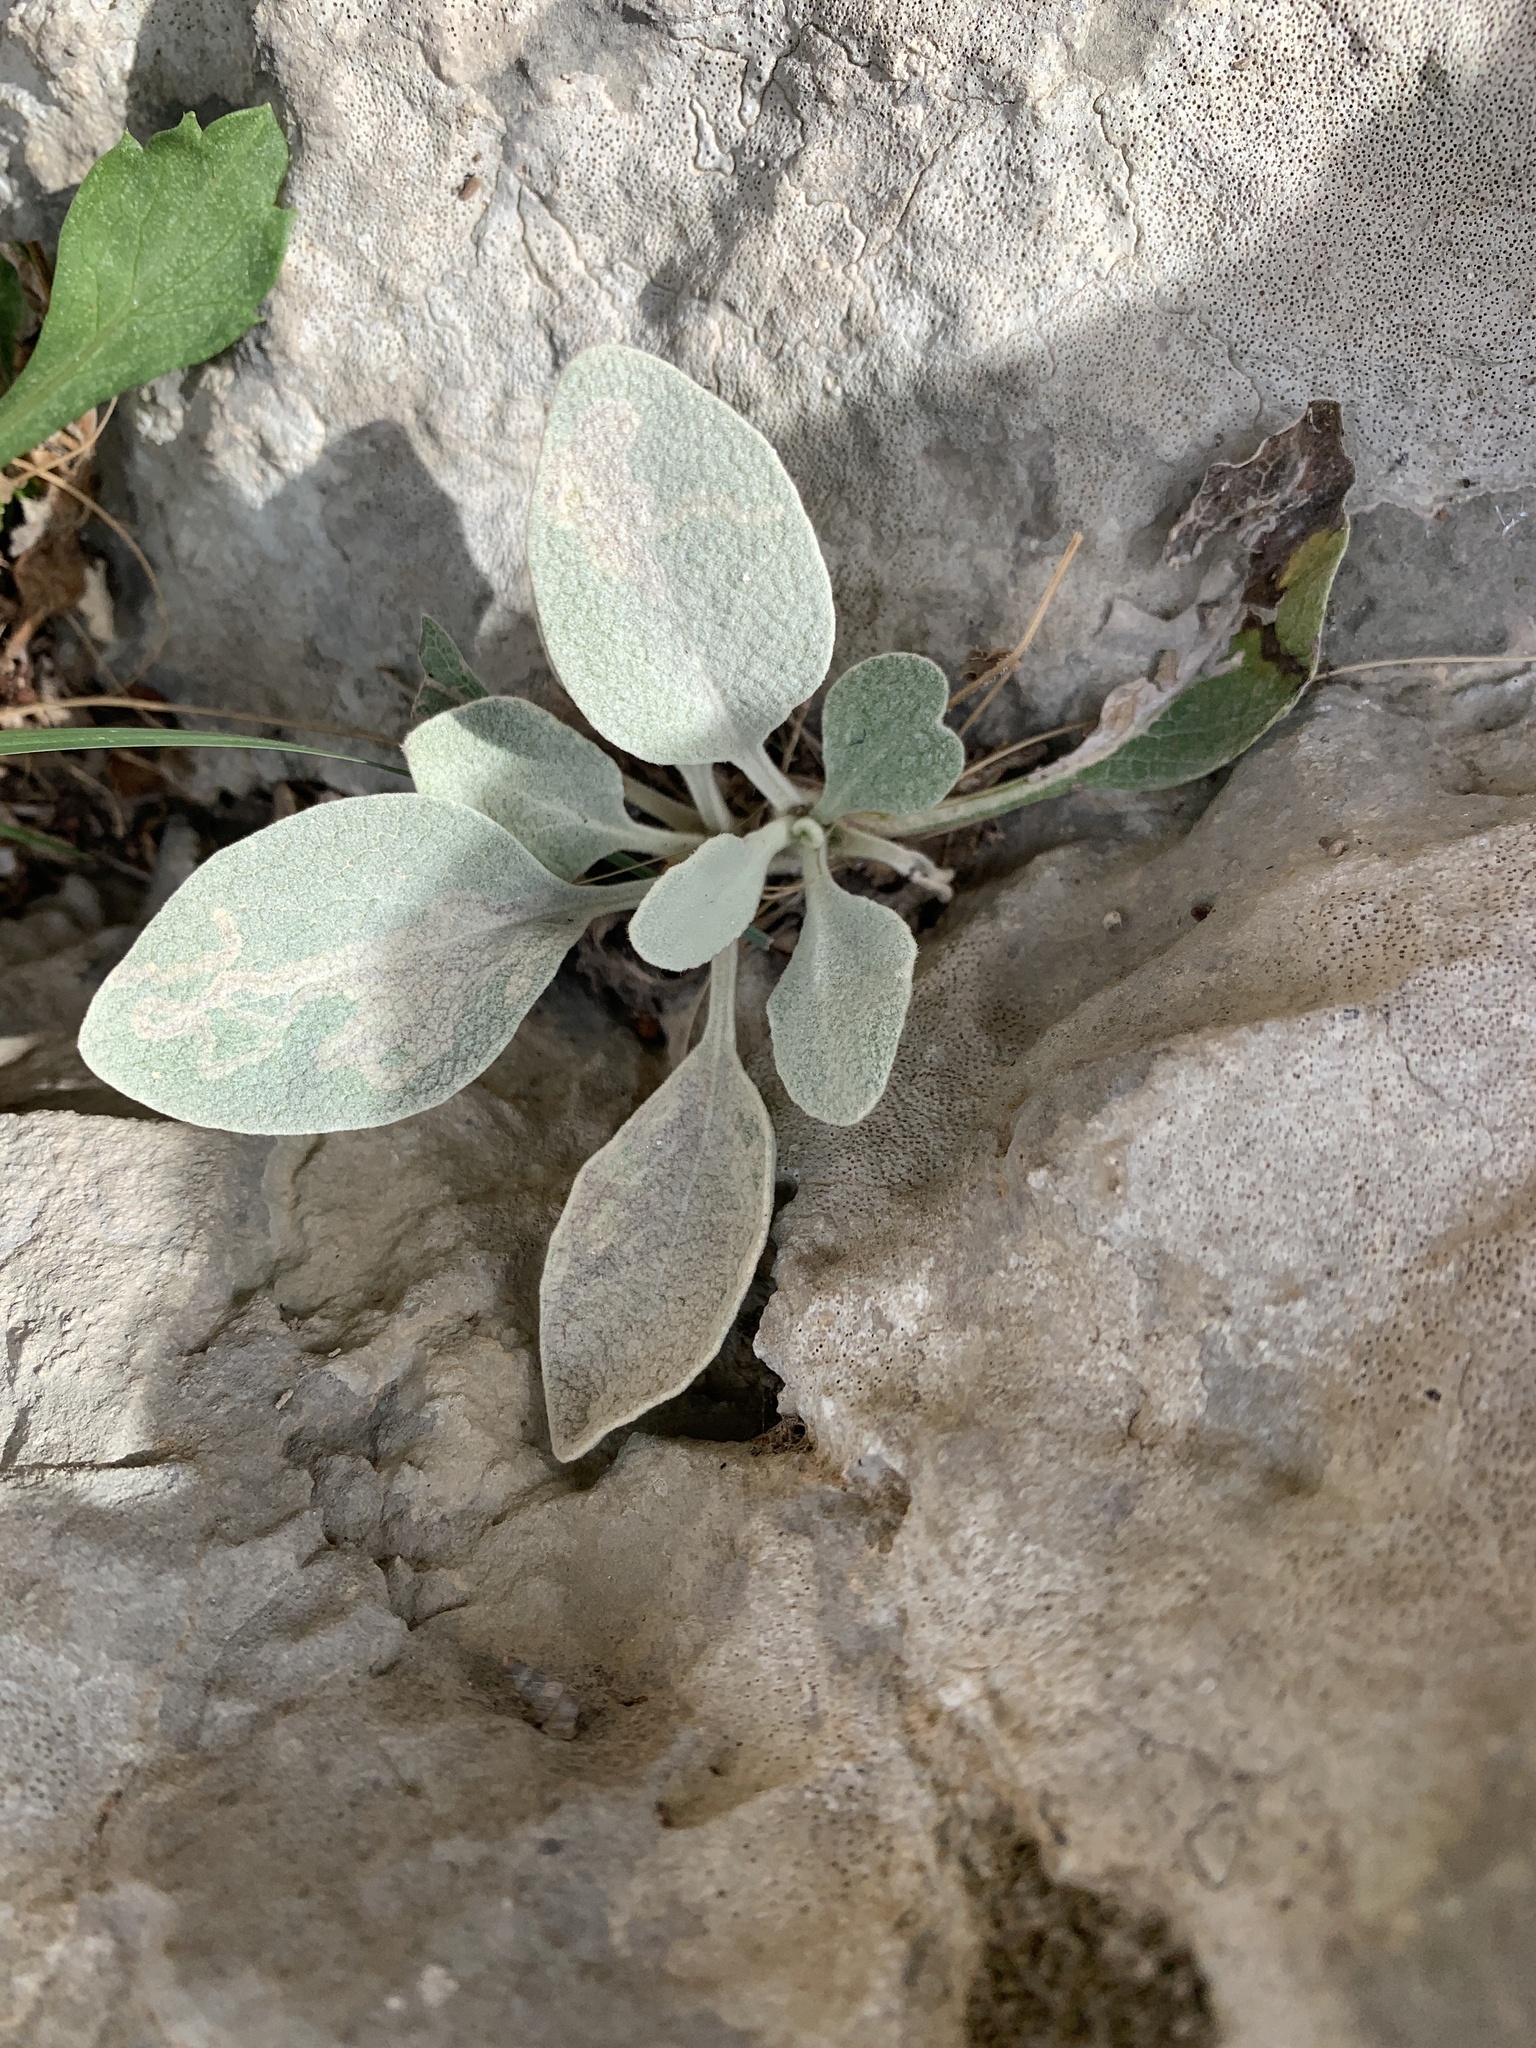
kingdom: Plantae
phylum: Tracheophyta
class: Magnoliopsida
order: Asterales
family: Asteraceae
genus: Pentanema
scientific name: Pentanema verbascifolium
